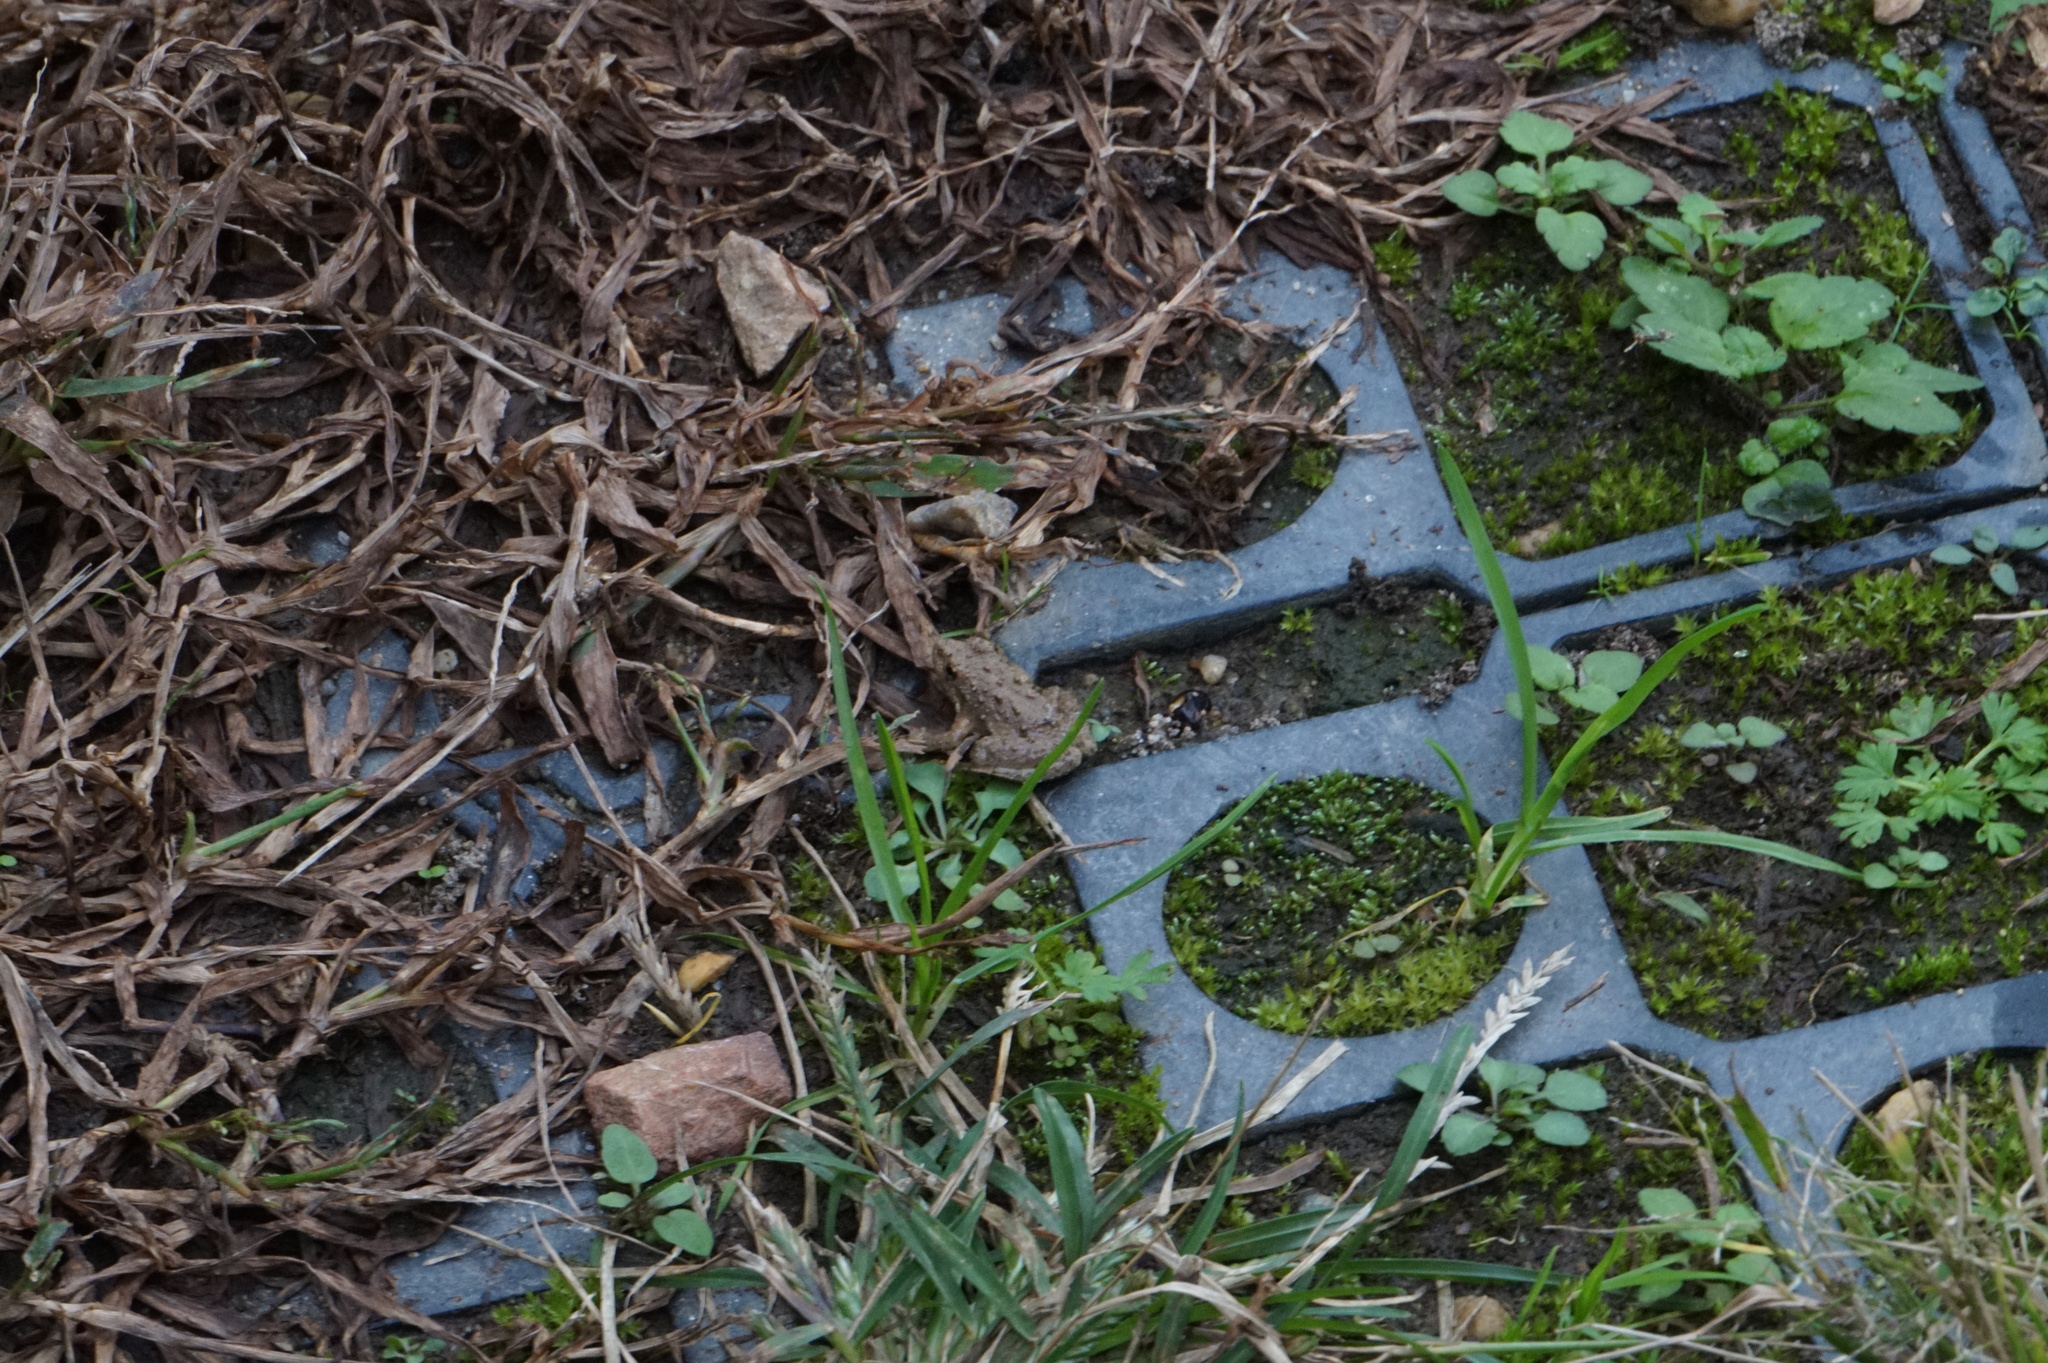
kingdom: Animalia
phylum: Chordata
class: Amphibia
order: Anura
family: Hylidae
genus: Acris
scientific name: Acris crepitans
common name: Northern cricket frog
